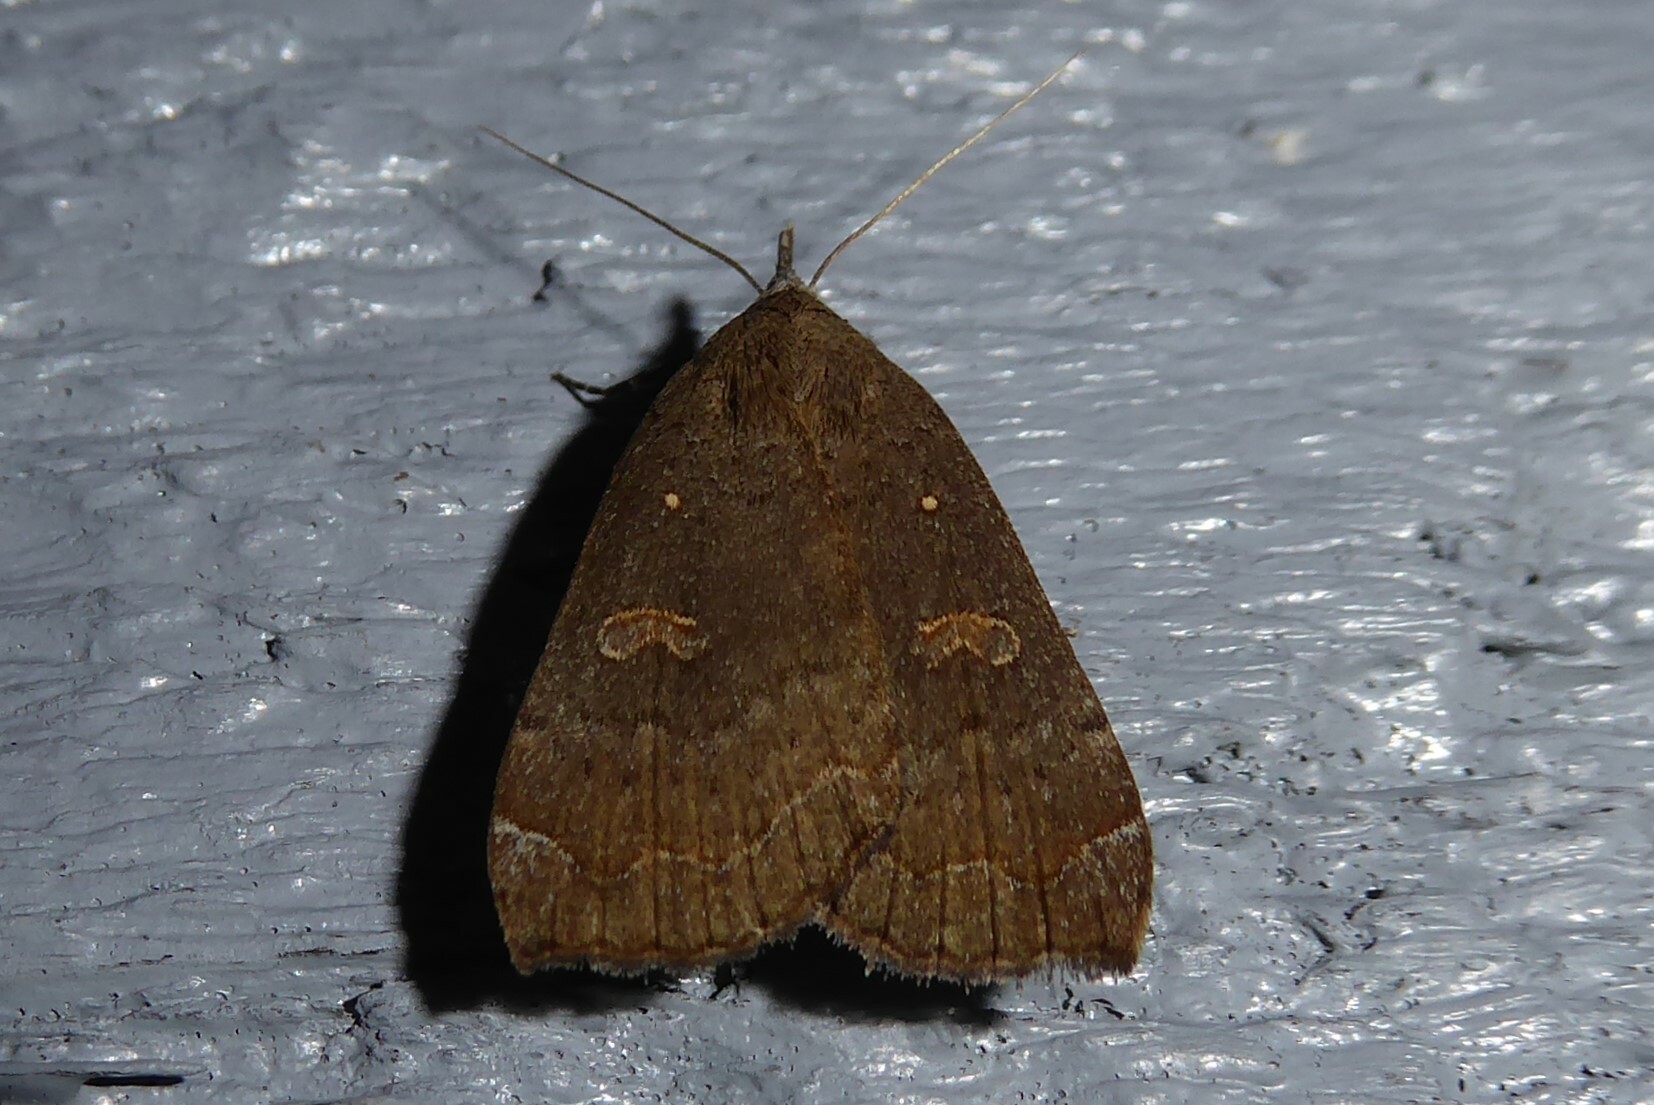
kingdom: Animalia
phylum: Arthropoda
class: Insecta
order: Lepidoptera
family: Erebidae
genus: Rhapsa
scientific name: Rhapsa scotosialis
